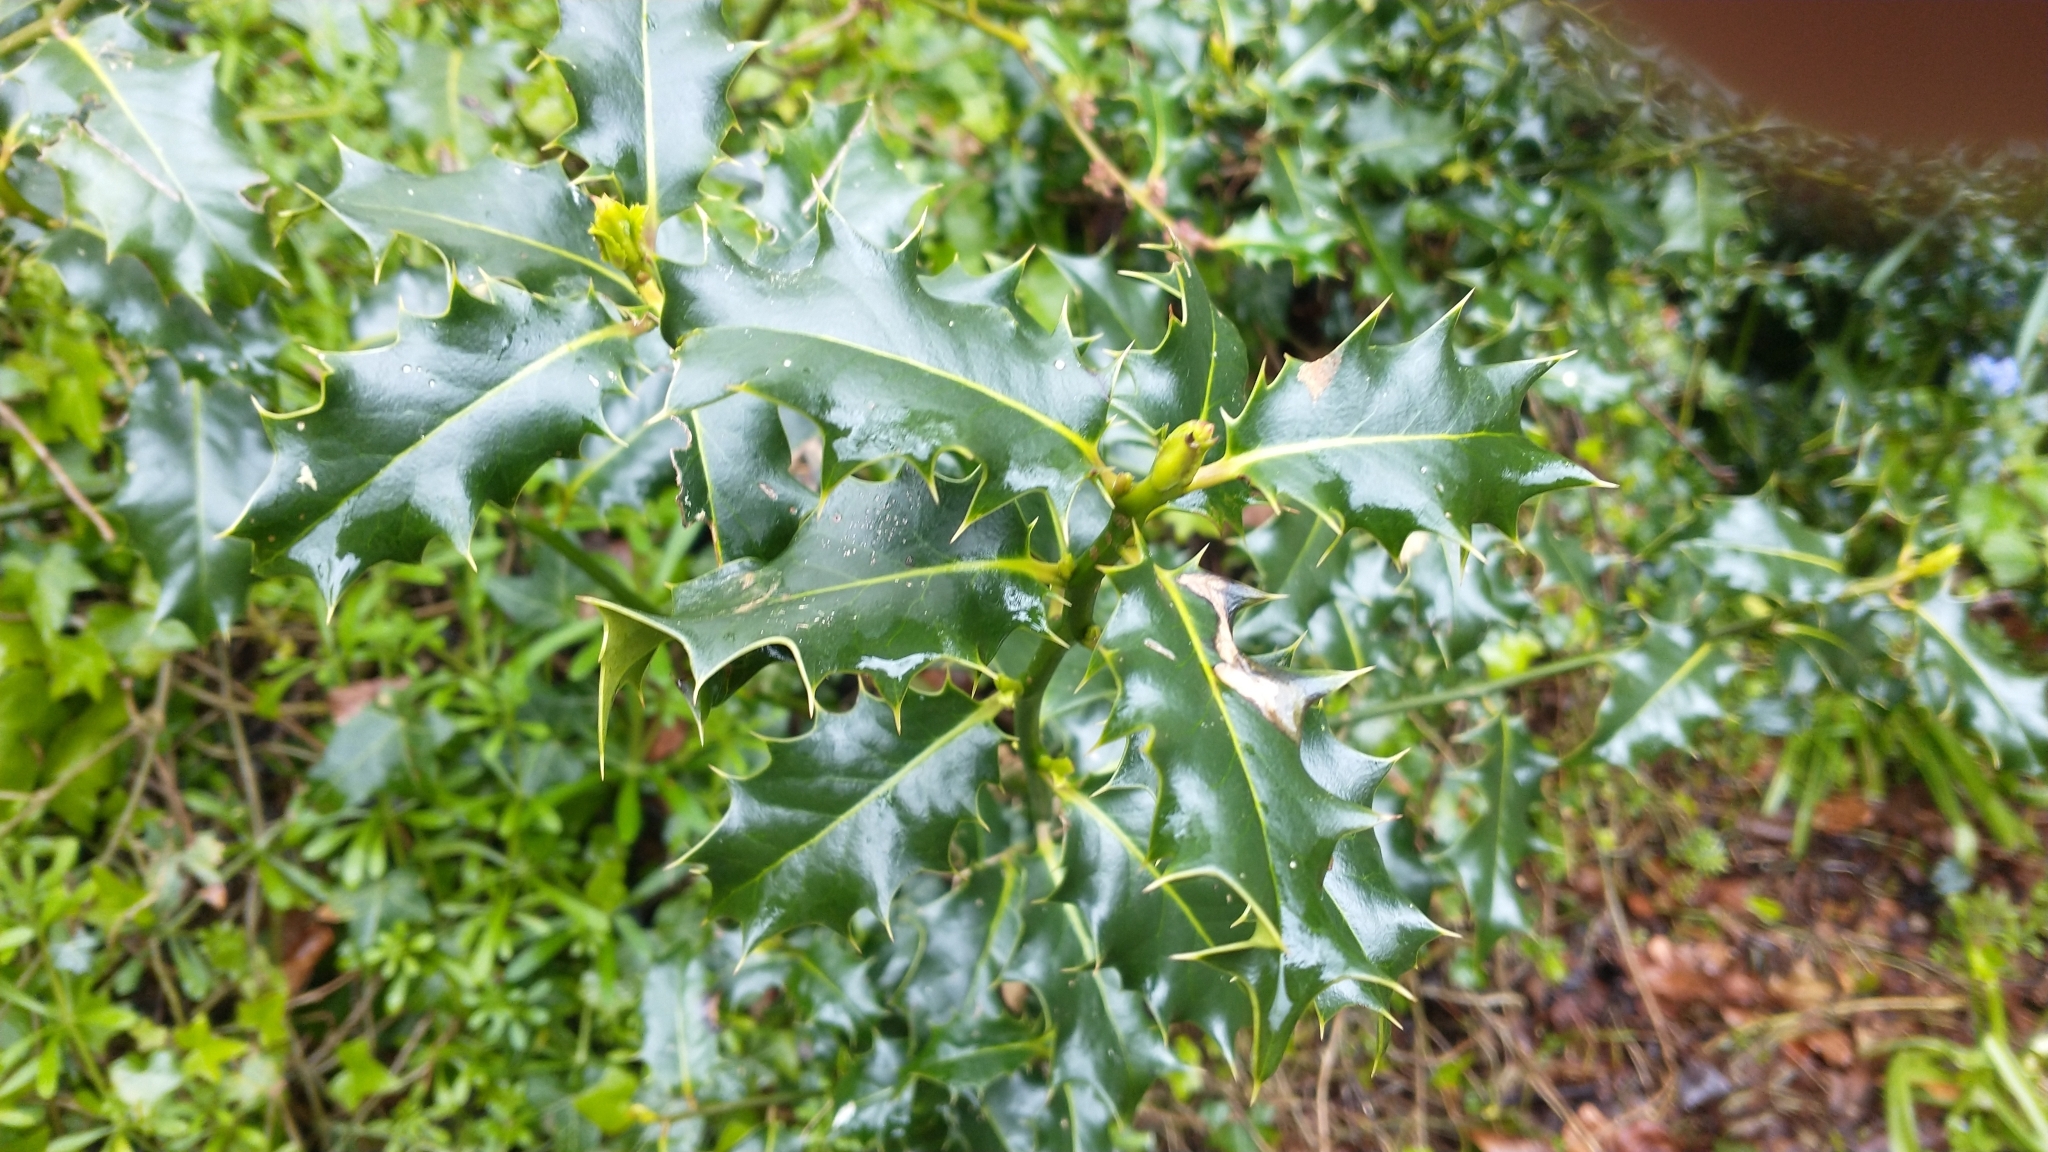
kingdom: Plantae
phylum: Tracheophyta
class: Magnoliopsida
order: Aquifoliales
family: Aquifoliaceae
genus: Ilex
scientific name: Ilex aquifolium
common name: English holly
